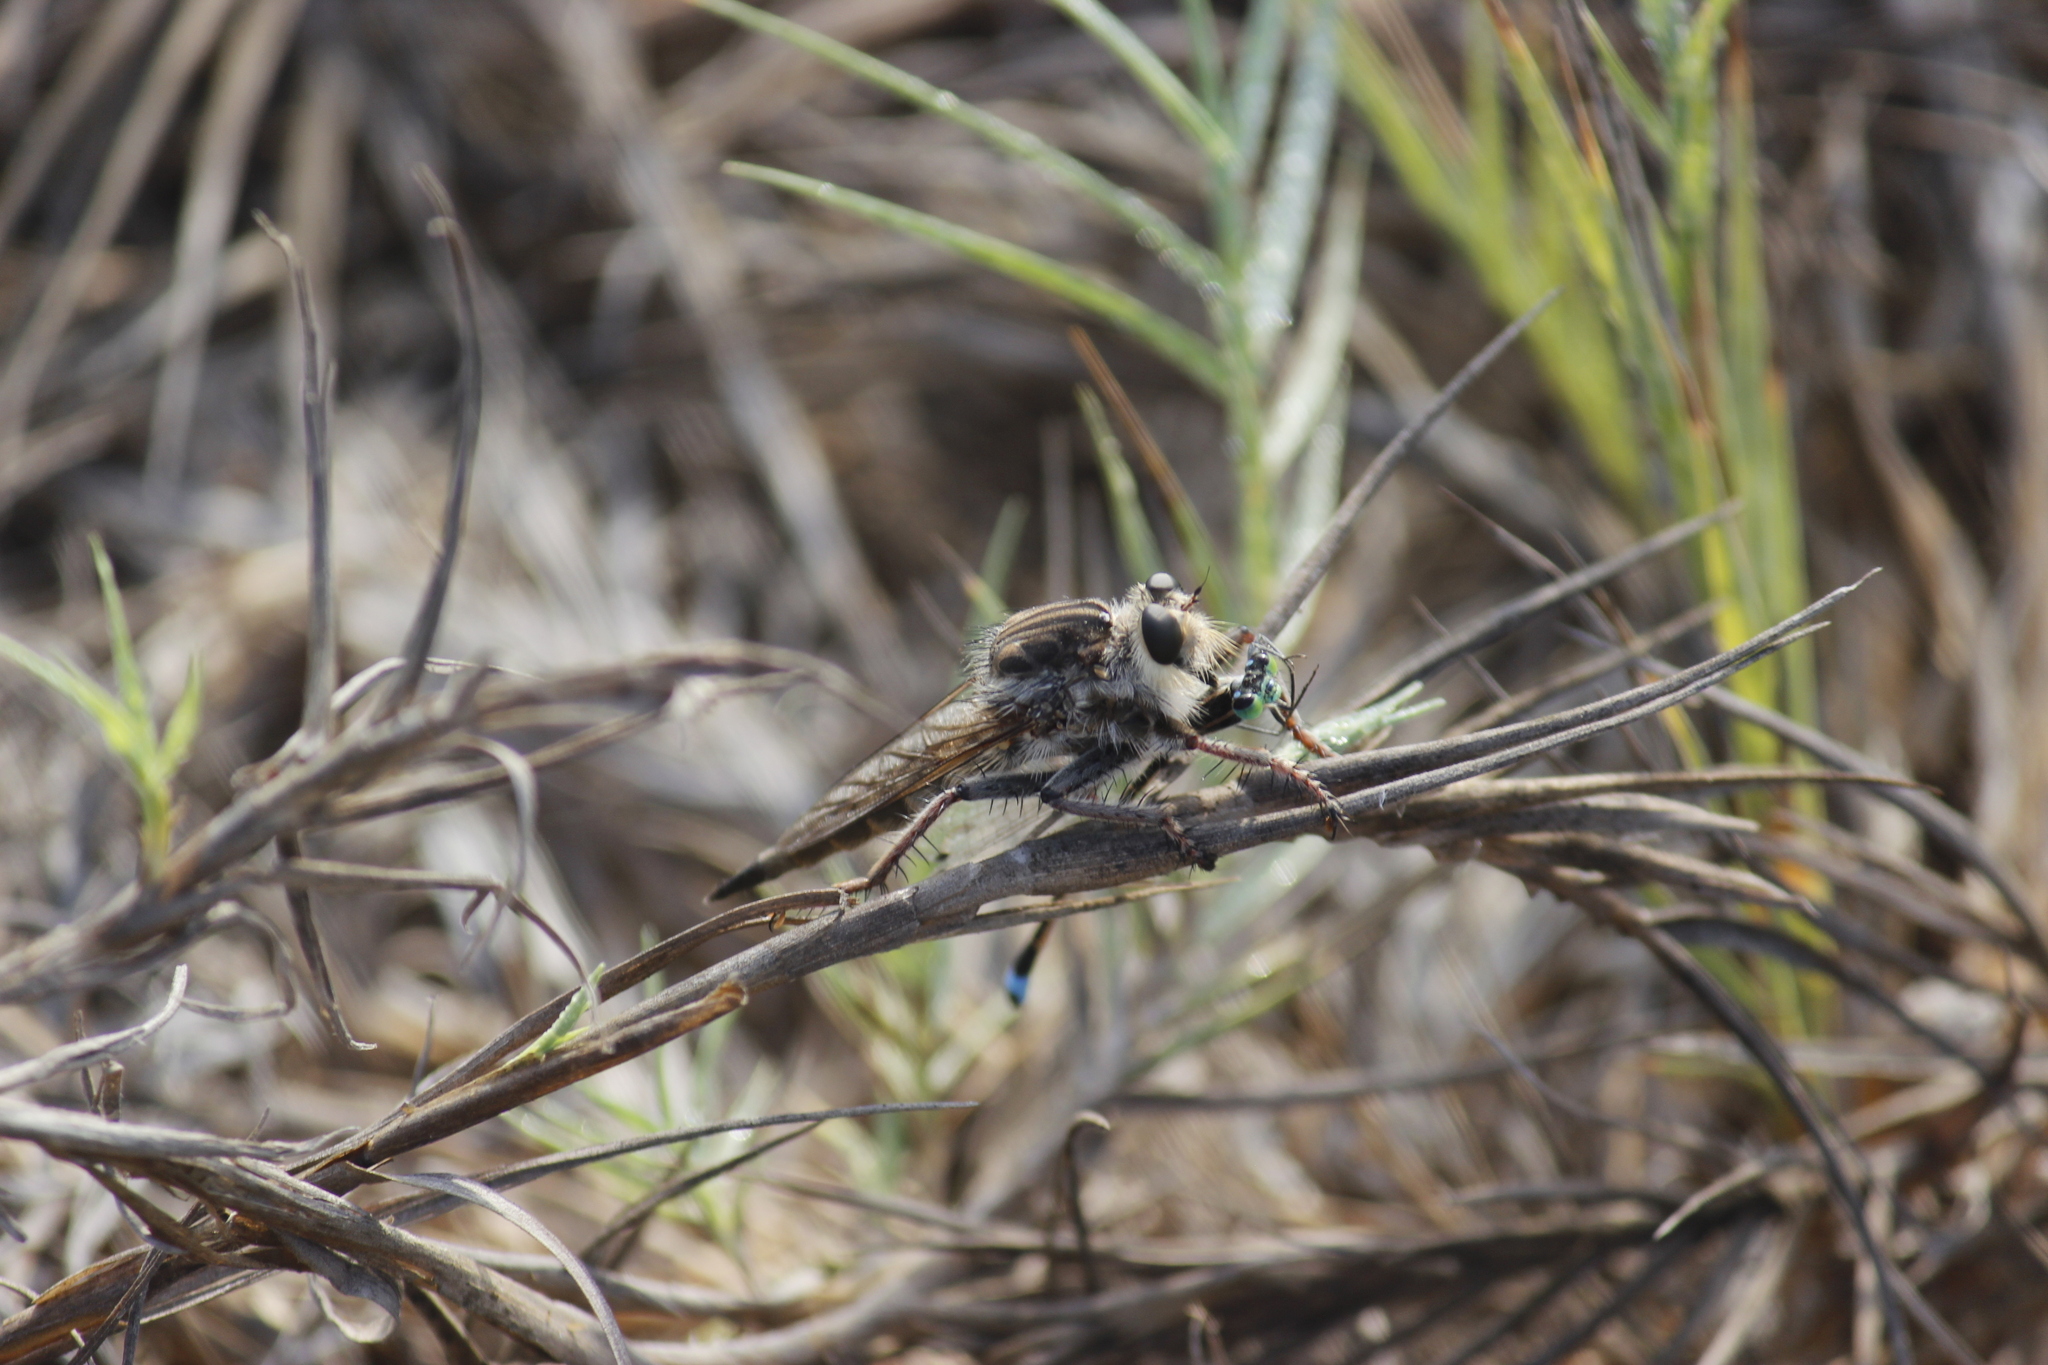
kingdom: Animalia
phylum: Arthropoda
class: Insecta
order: Diptera
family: Asilidae
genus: Lochmorhynchus
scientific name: Lochmorhynchus leoninus
